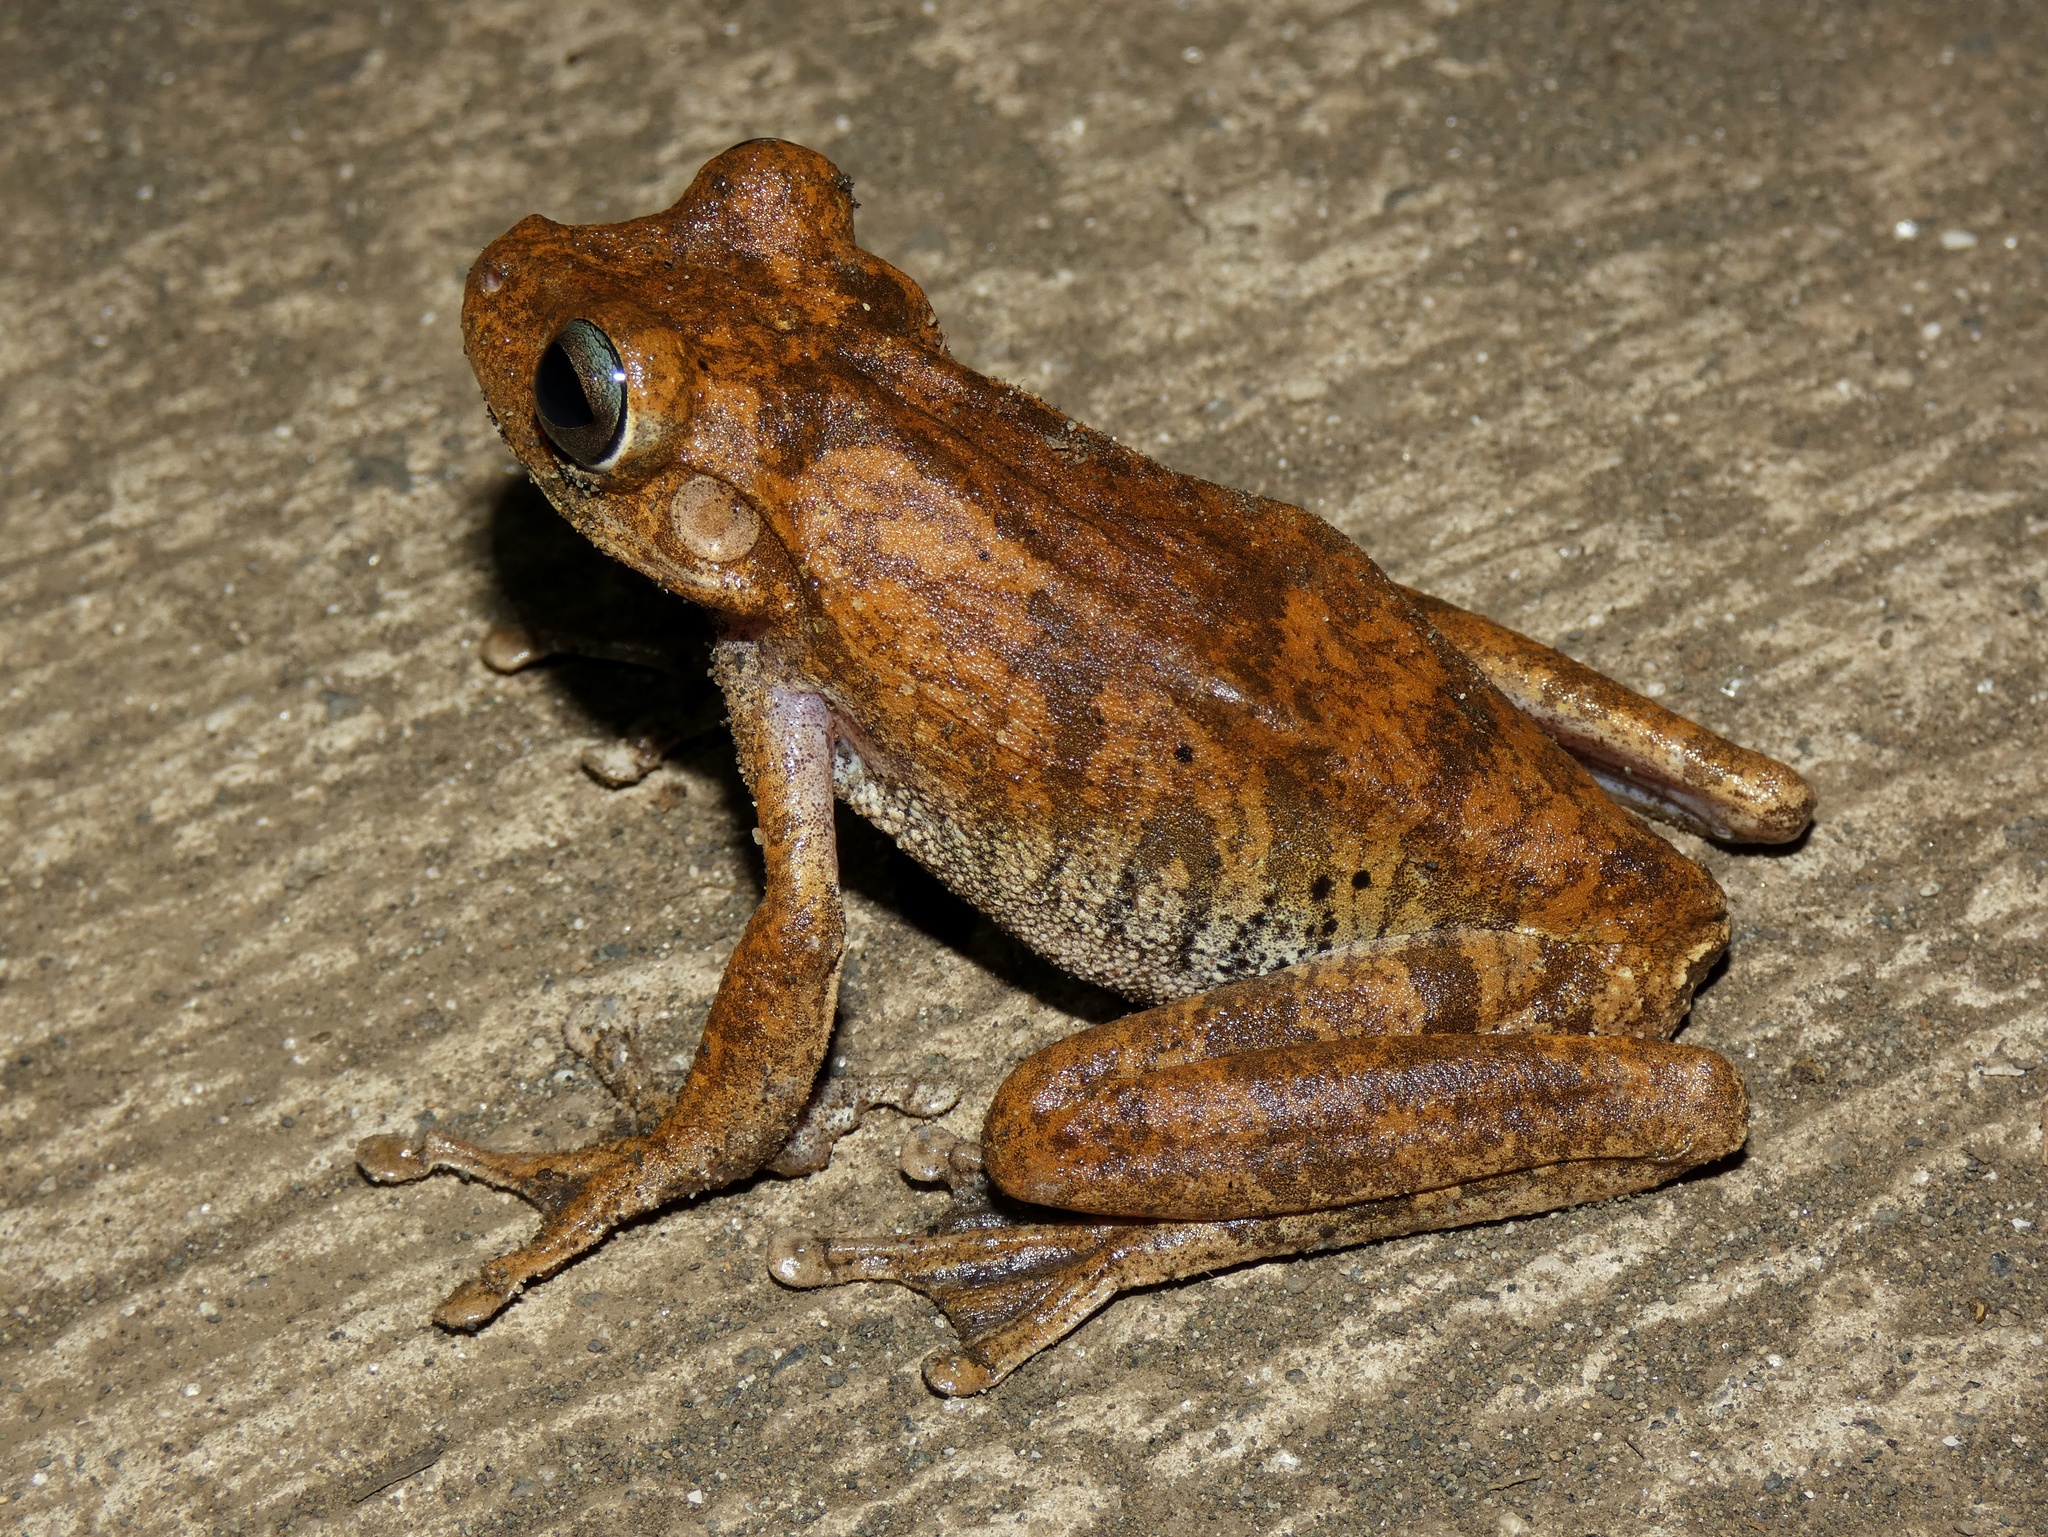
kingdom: Animalia
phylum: Chordata
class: Amphibia
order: Anura
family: Hylidae
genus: Boana
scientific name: Boana platanera
